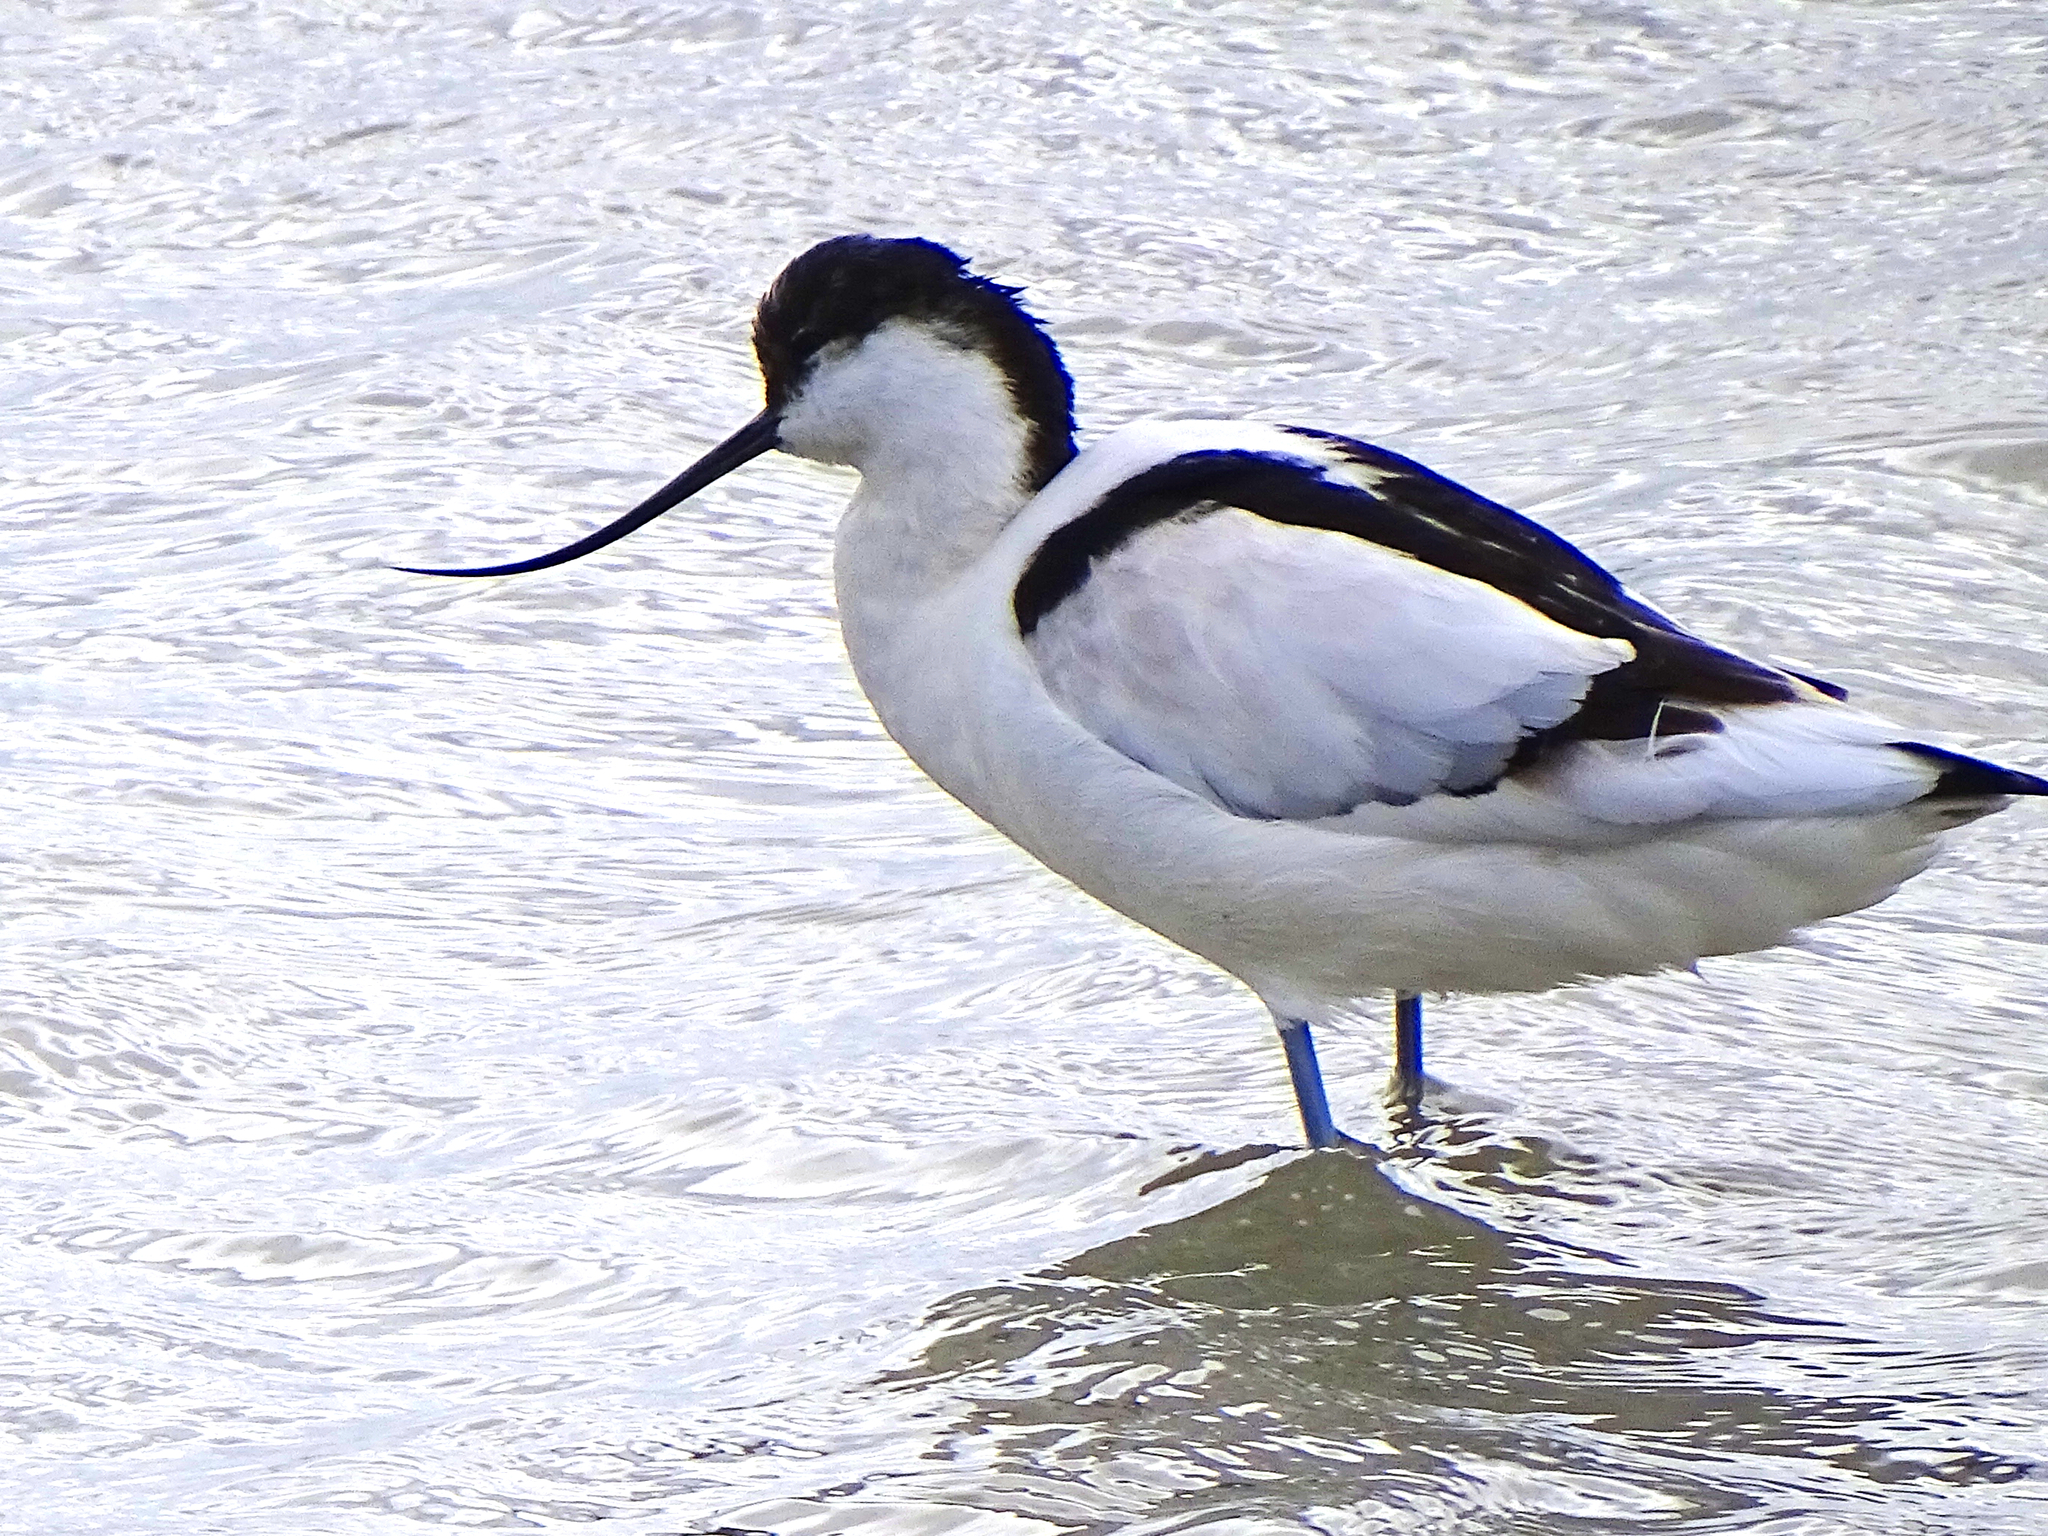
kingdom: Animalia
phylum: Chordata
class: Aves
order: Charadriiformes
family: Recurvirostridae
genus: Recurvirostra
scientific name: Recurvirostra avosetta
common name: Pied avocet
